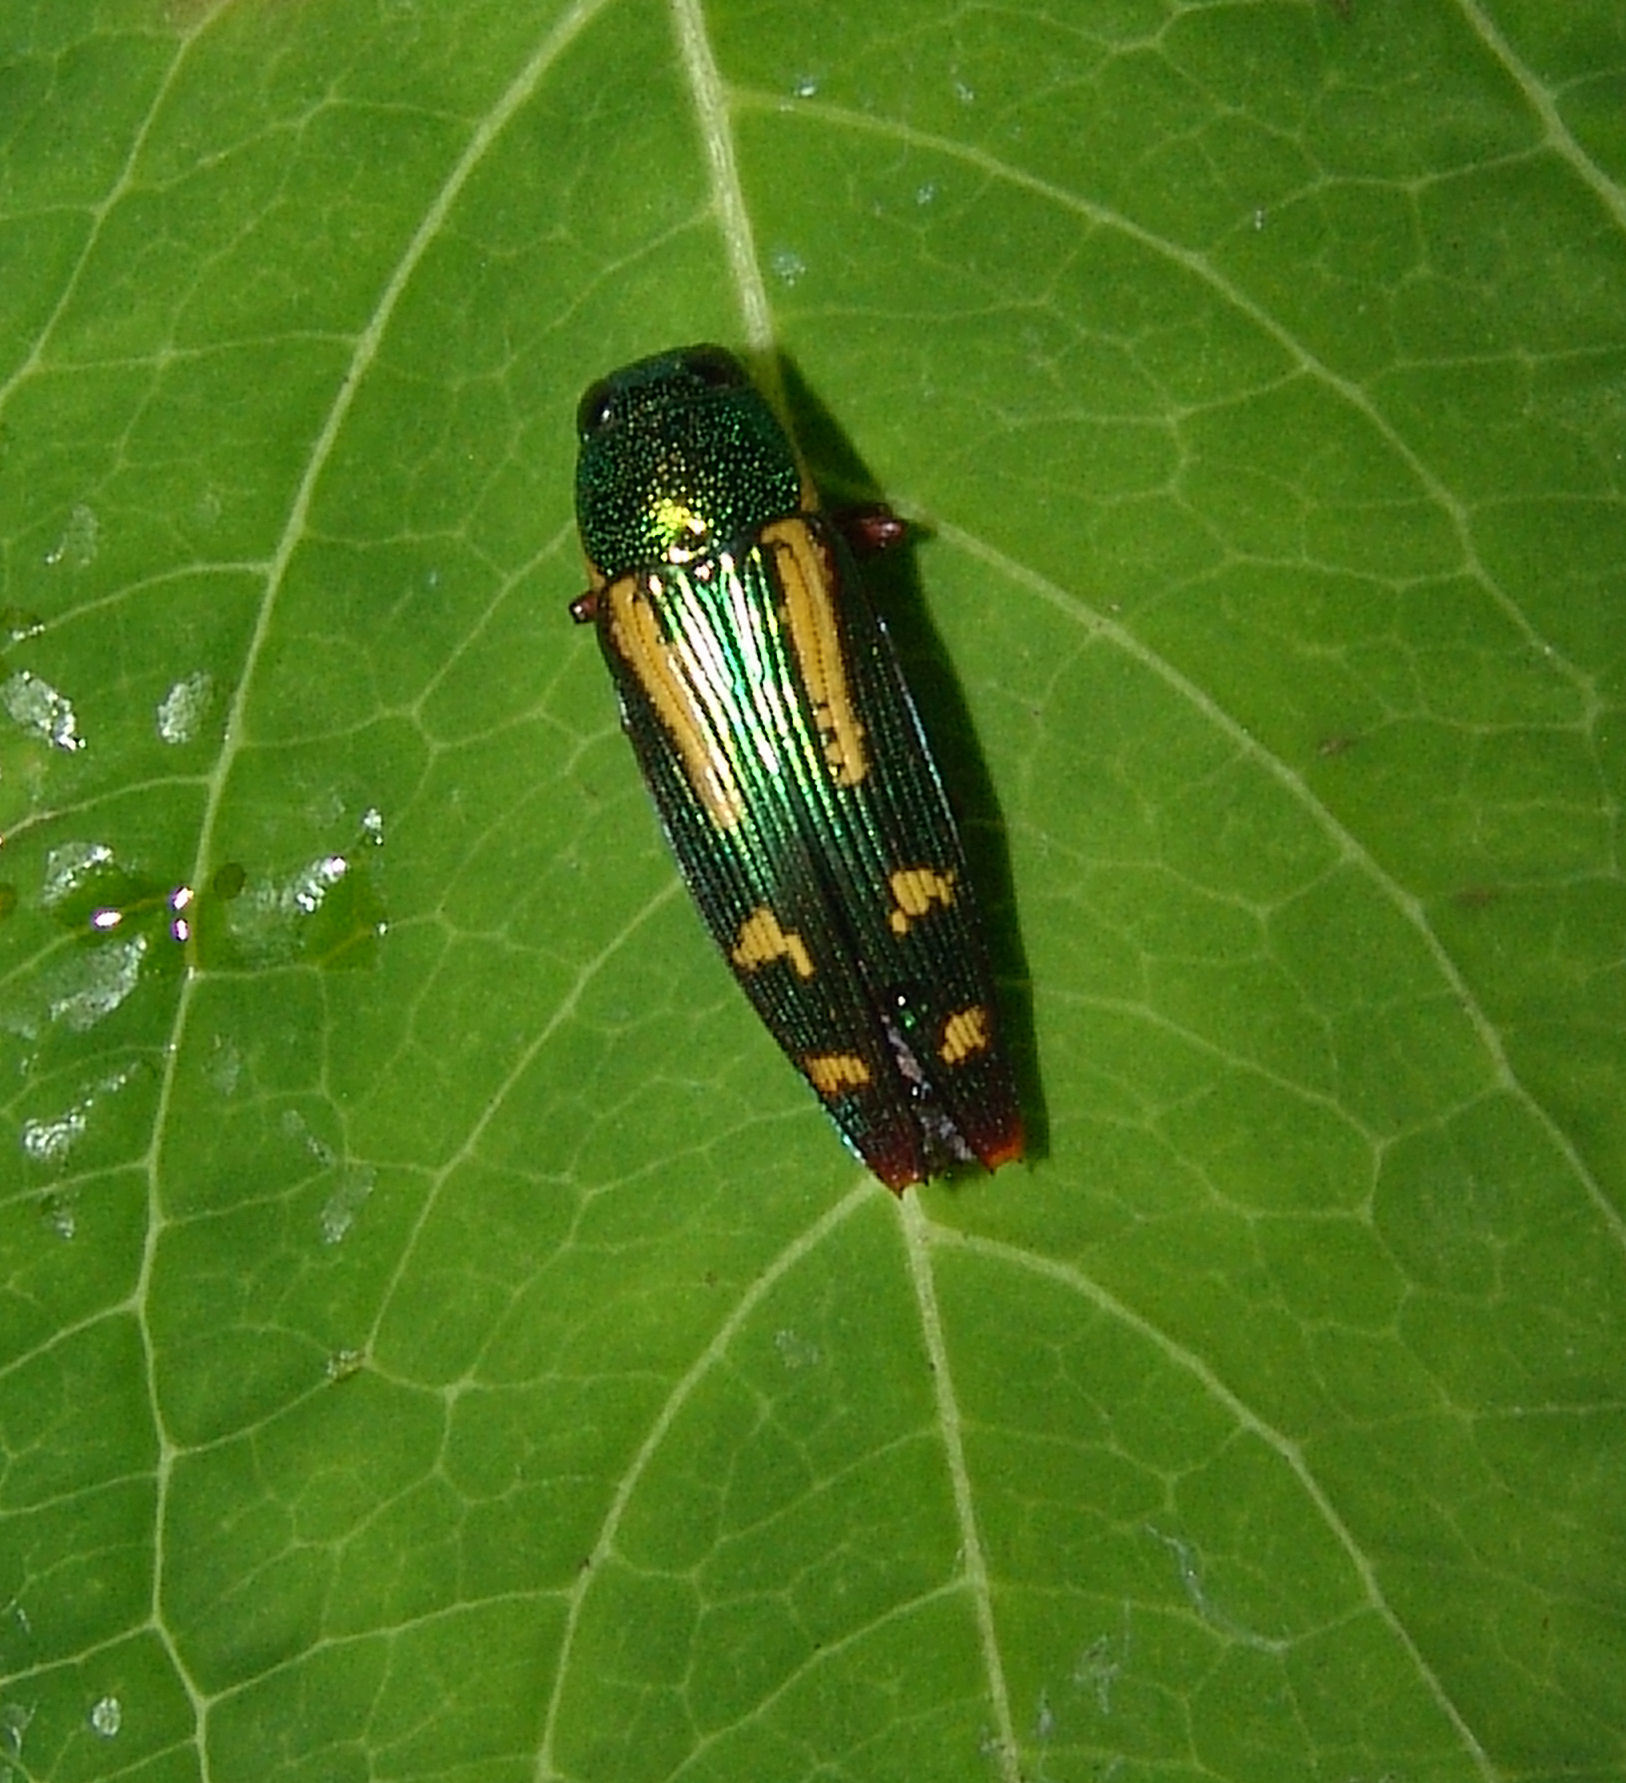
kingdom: Animalia
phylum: Arthropoda
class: Insecta
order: Coleoptera
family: Buprestidae
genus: Buprestis
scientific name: Buprestis rufipes
